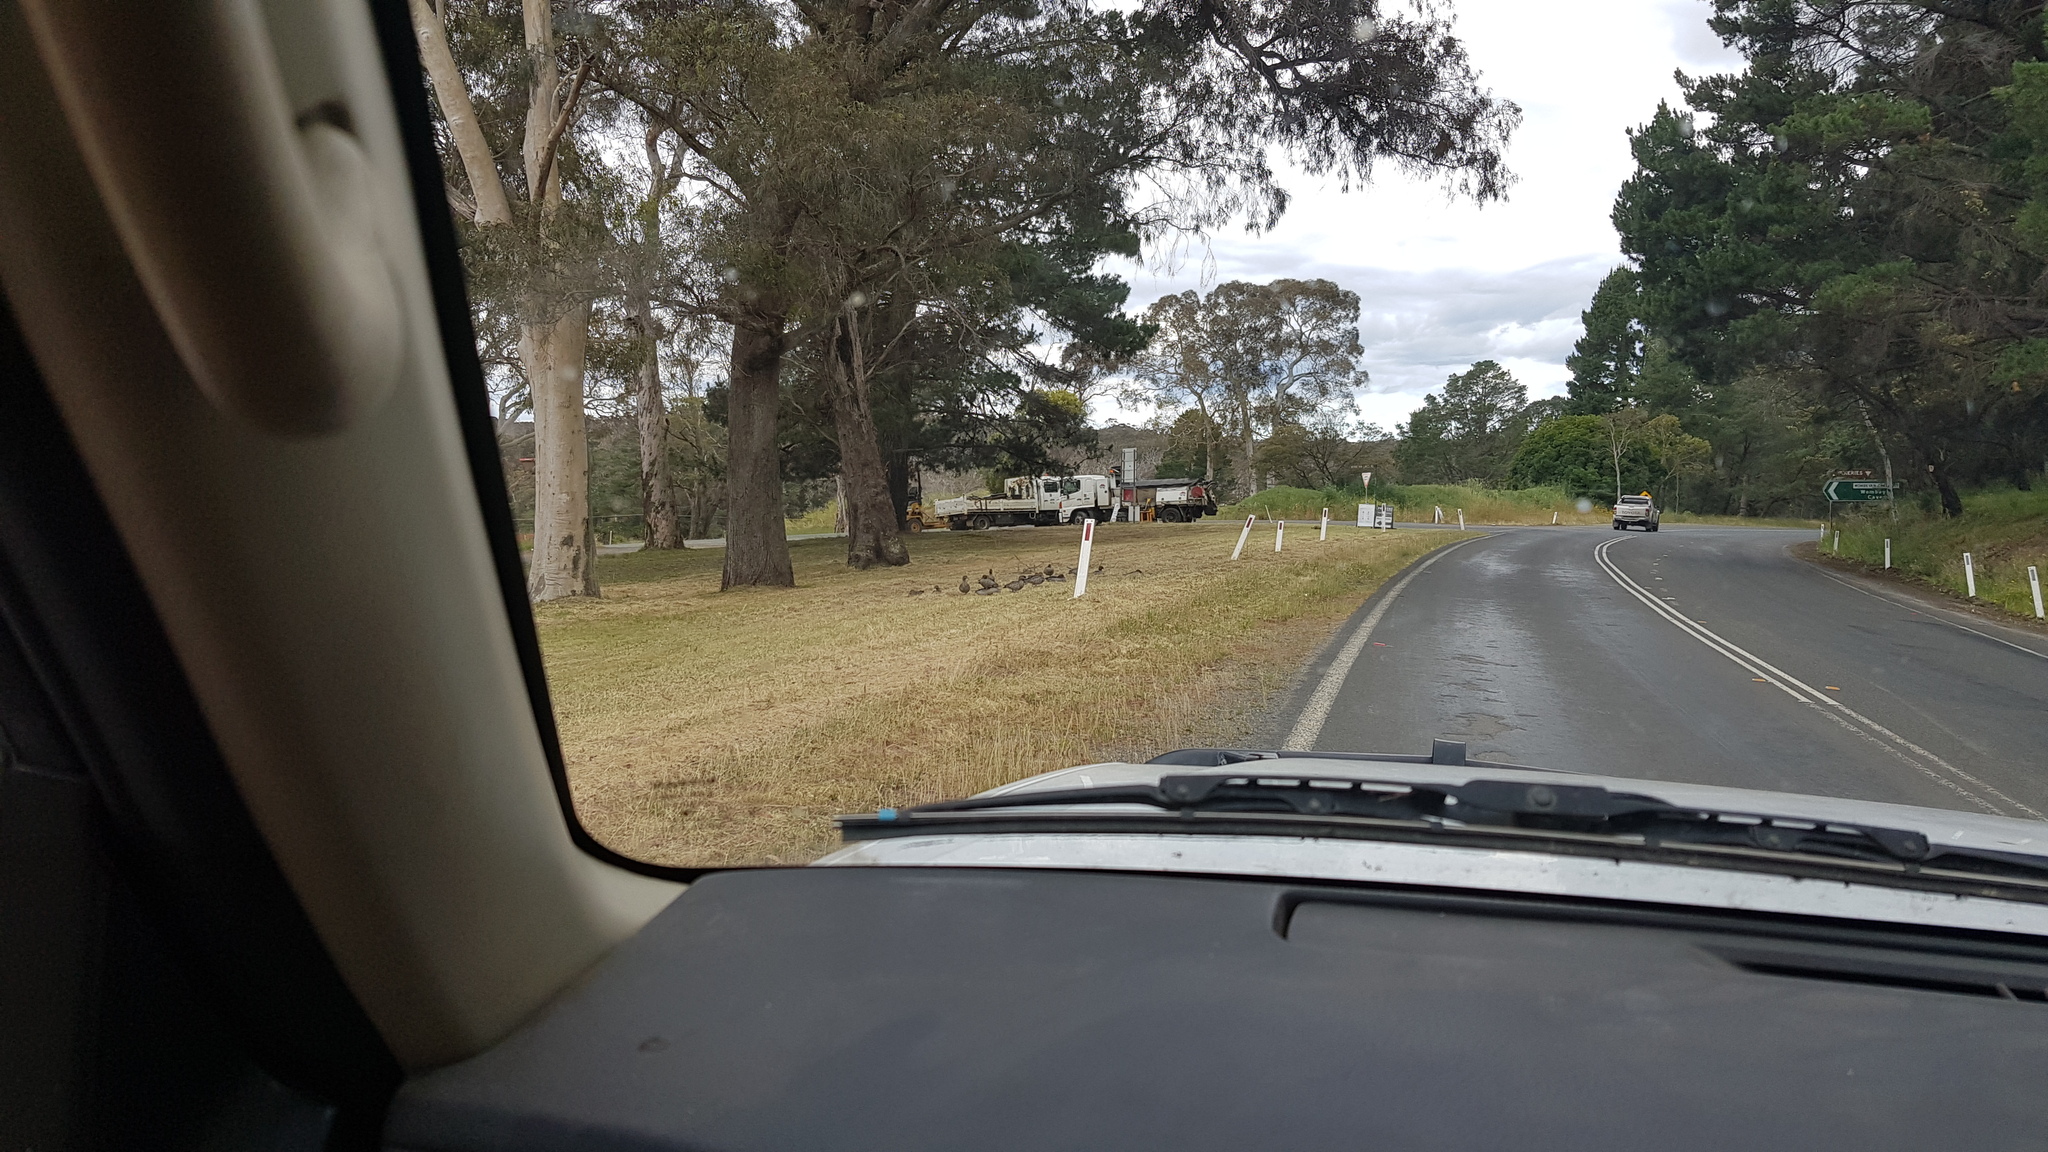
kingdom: Animalia
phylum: Chordata
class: Aves
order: Anseriformes
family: Anatidae
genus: Chenonetta
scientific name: Chenonetta jubata
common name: Maned duck
